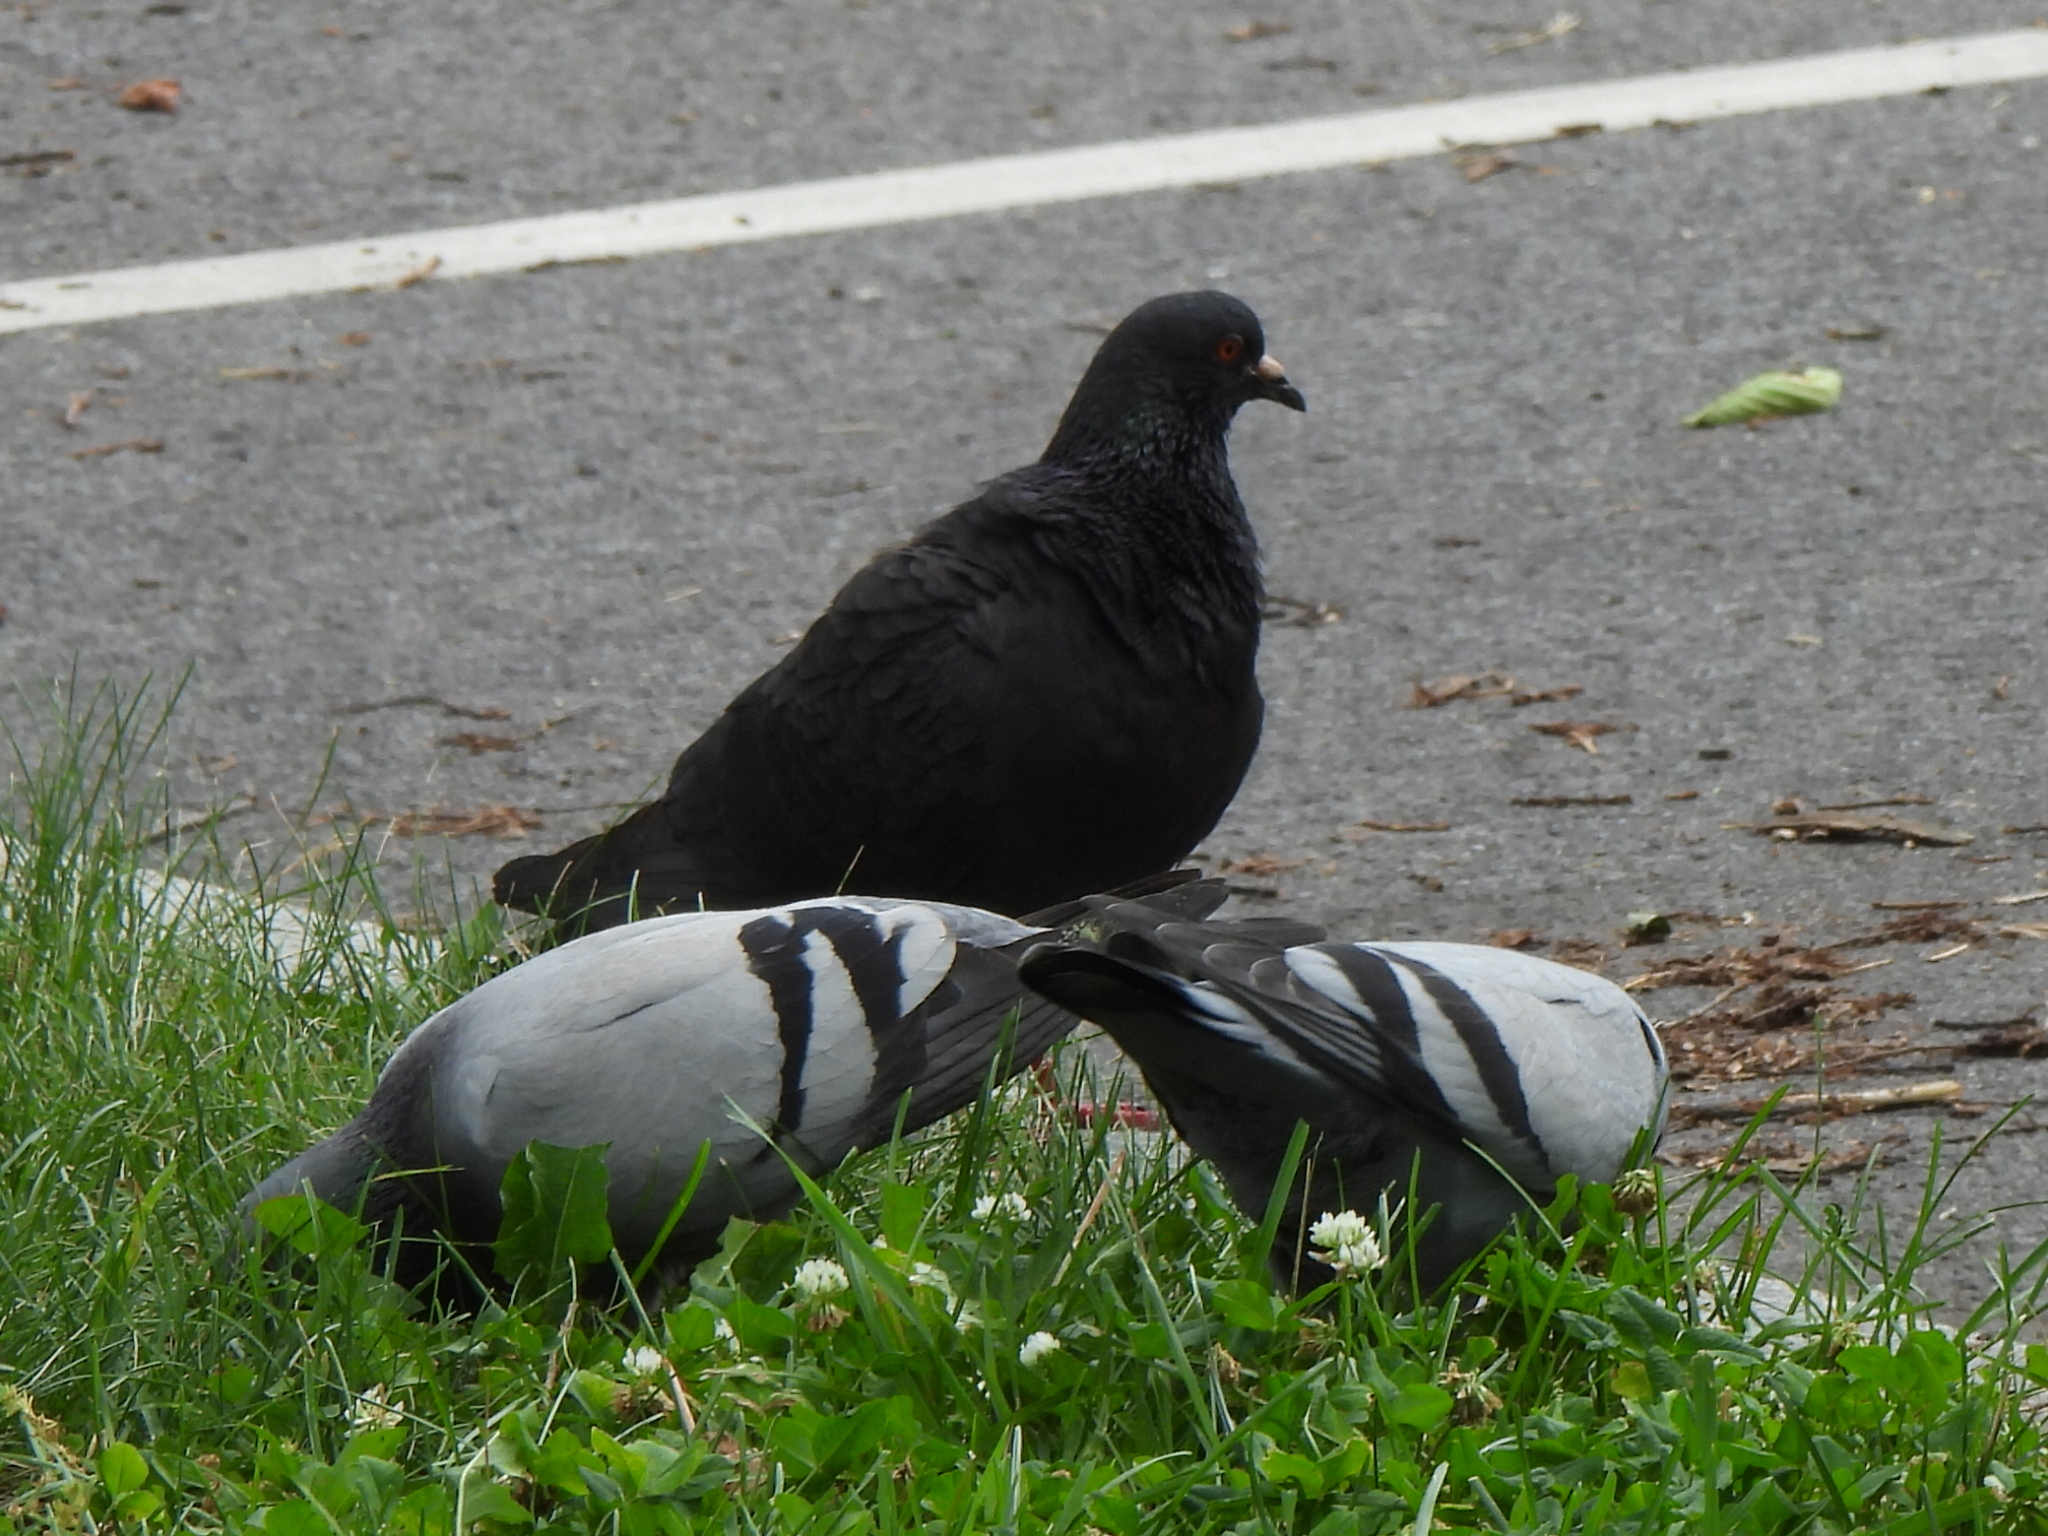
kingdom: Animalia
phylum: Chordata
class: Aves
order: Columbiformes
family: Columbidae
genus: Columba
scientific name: Columba livia
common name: Rock pigeon
